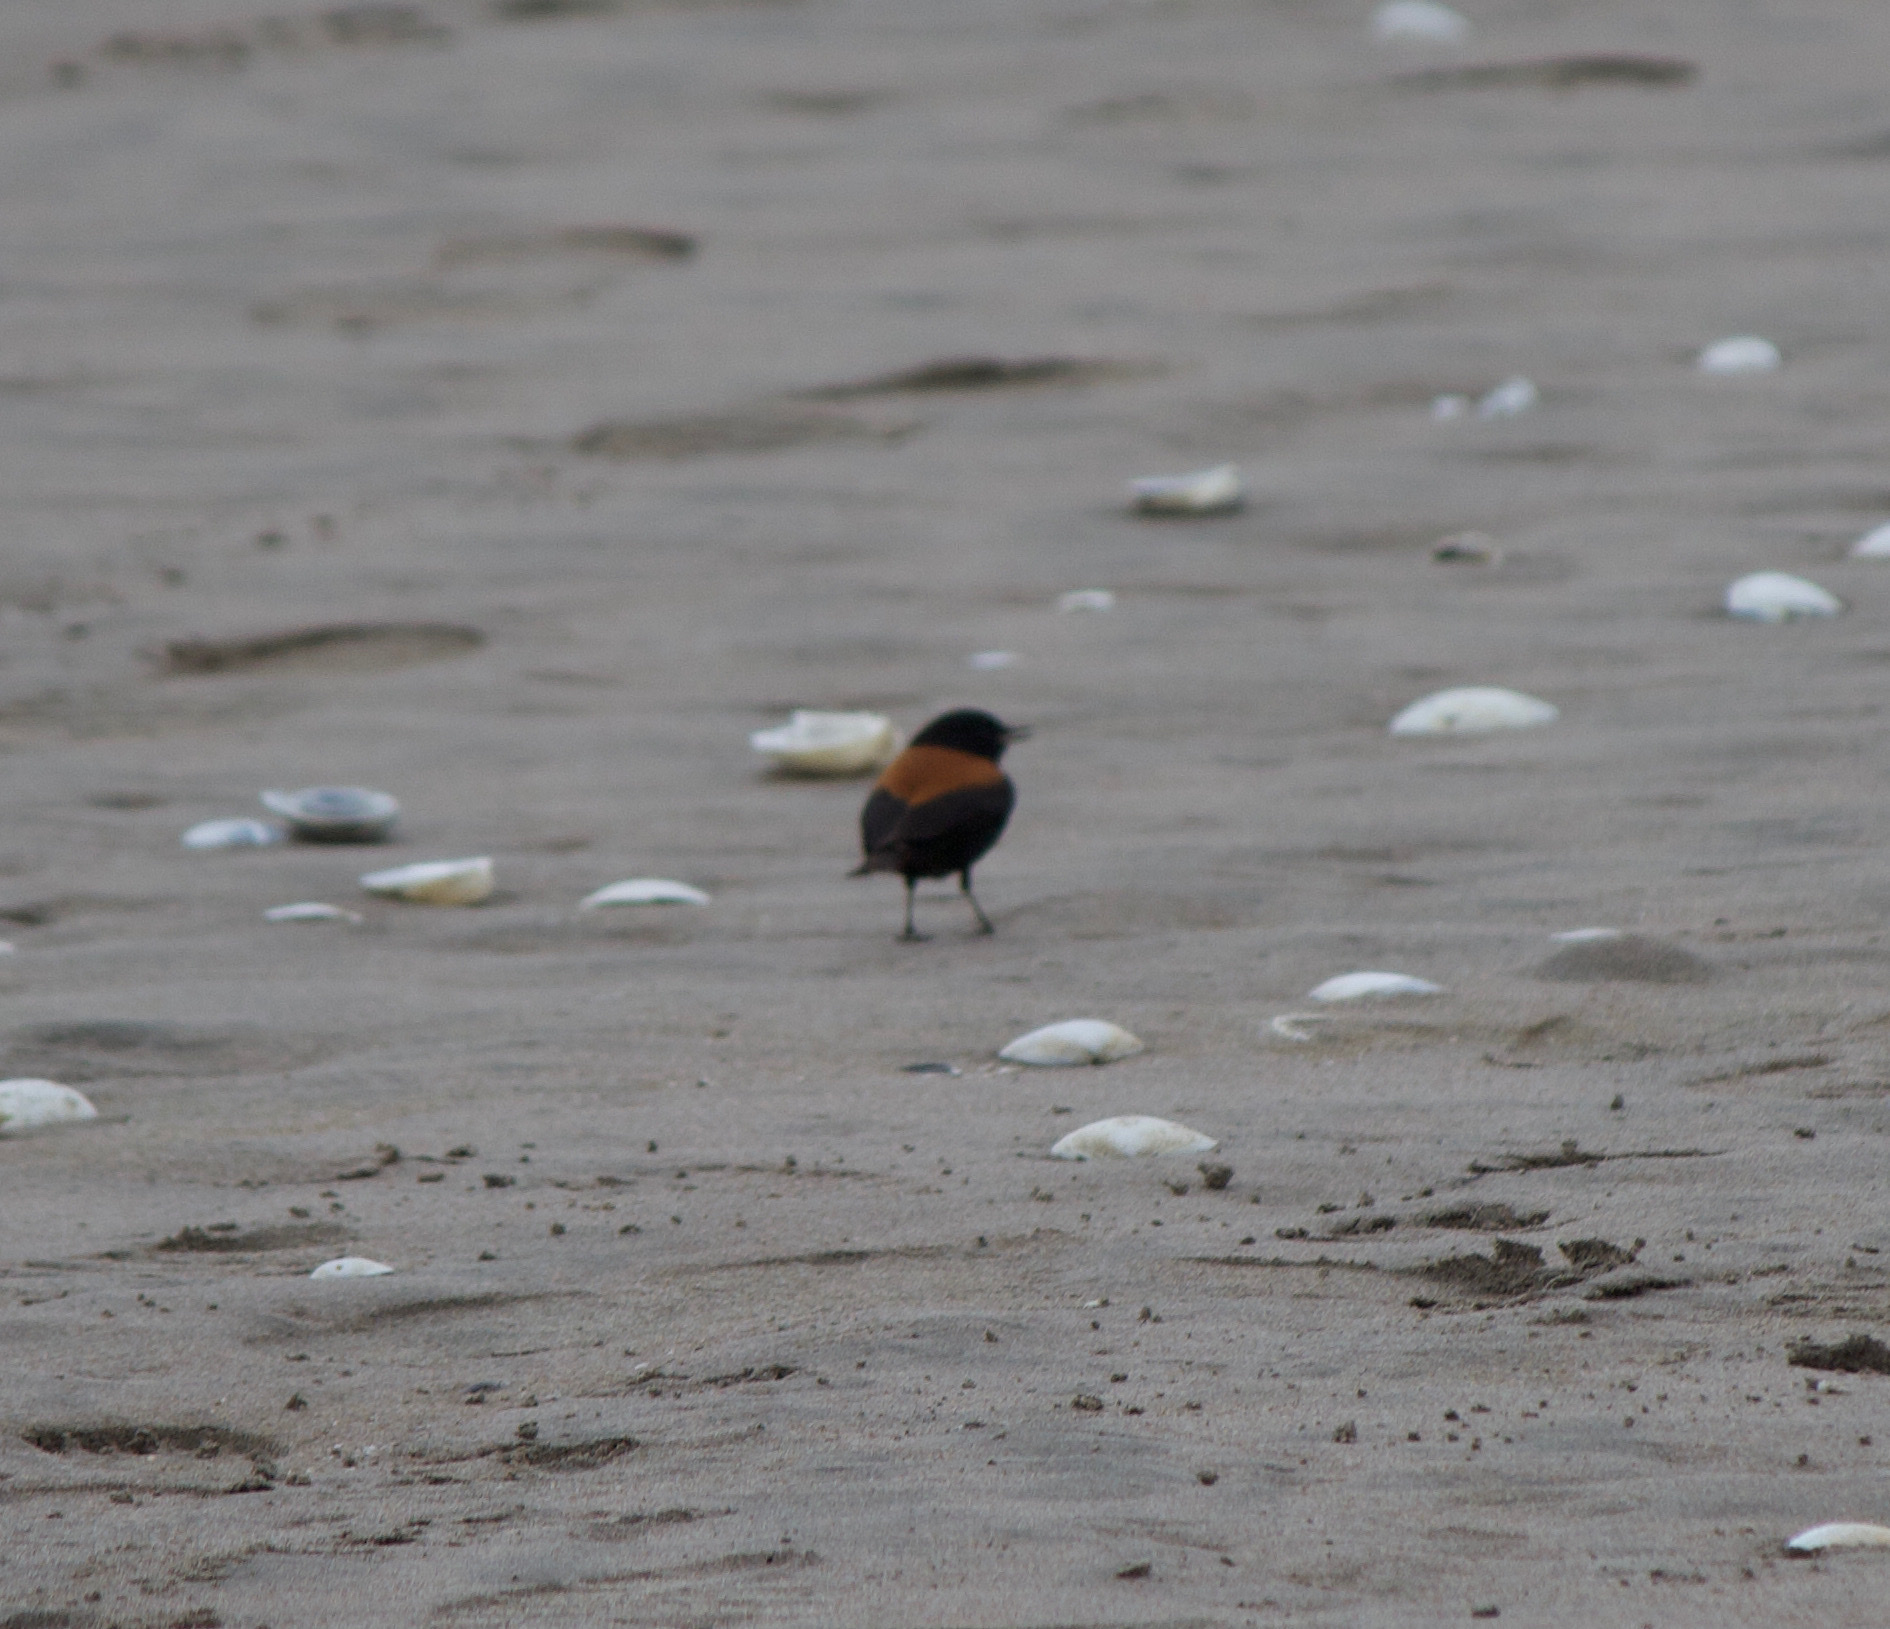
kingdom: Animalia
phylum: Chordata
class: Aves
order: Passeriformes
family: Tyrannidae
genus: Lessonia
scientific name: Lessonia rufa
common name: Austral negrito
